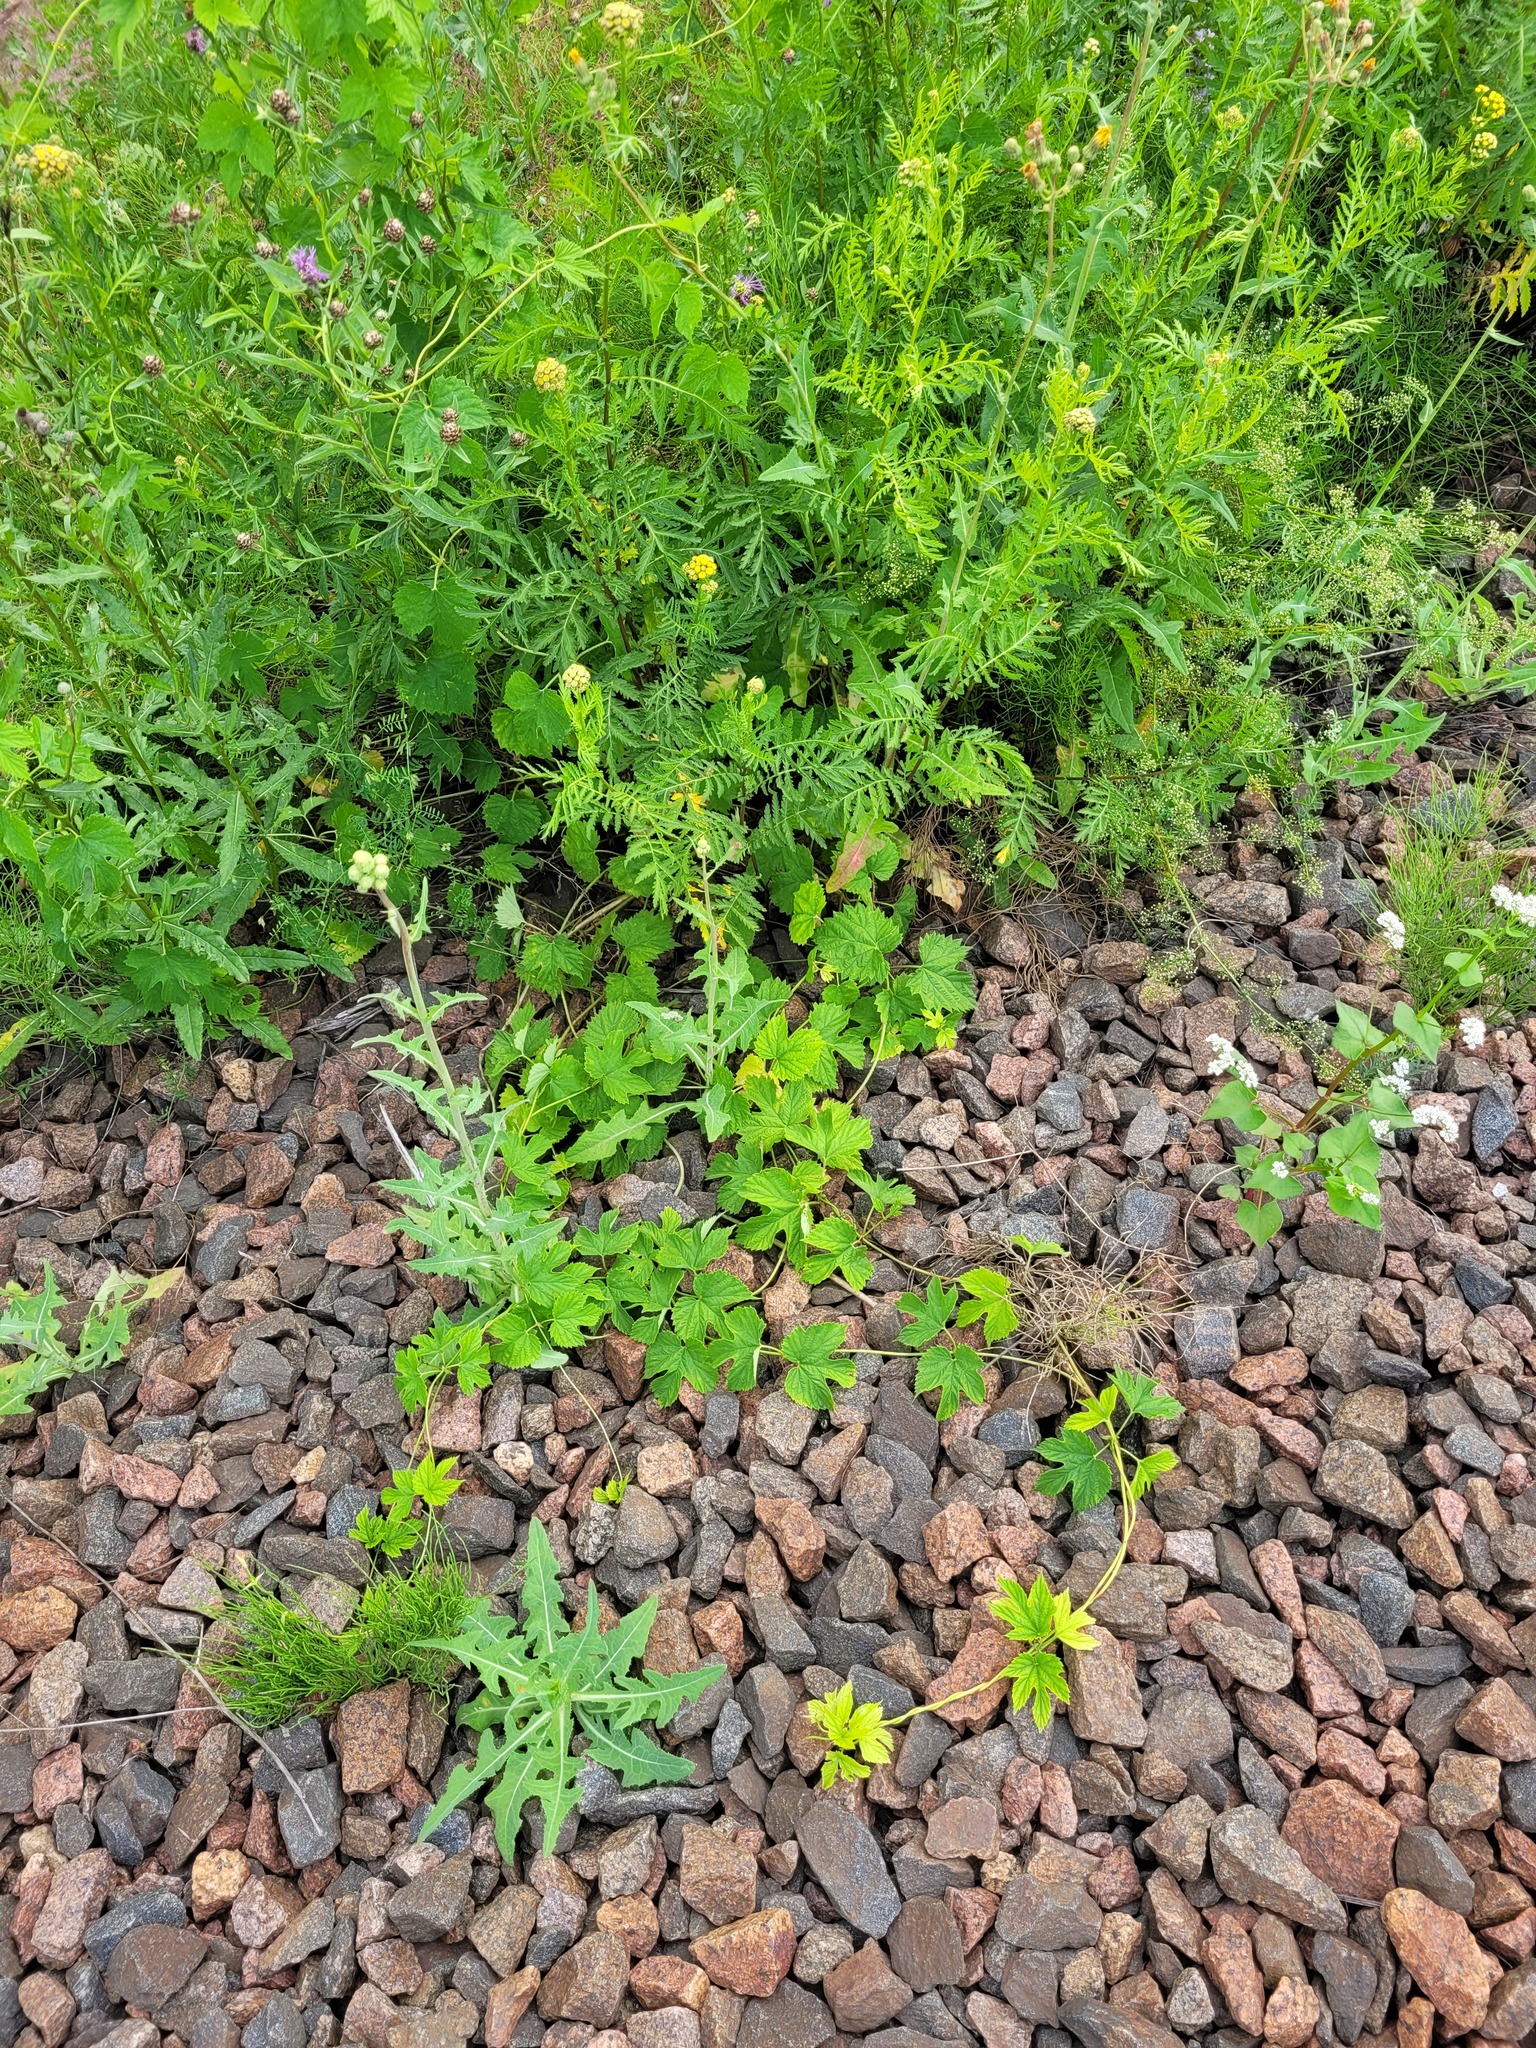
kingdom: Plantae
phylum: Tracheophyta
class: Magnoliopsida
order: Rosales
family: Cannabaceae
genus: Humulus
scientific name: Humulus lupulus
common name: Hop
